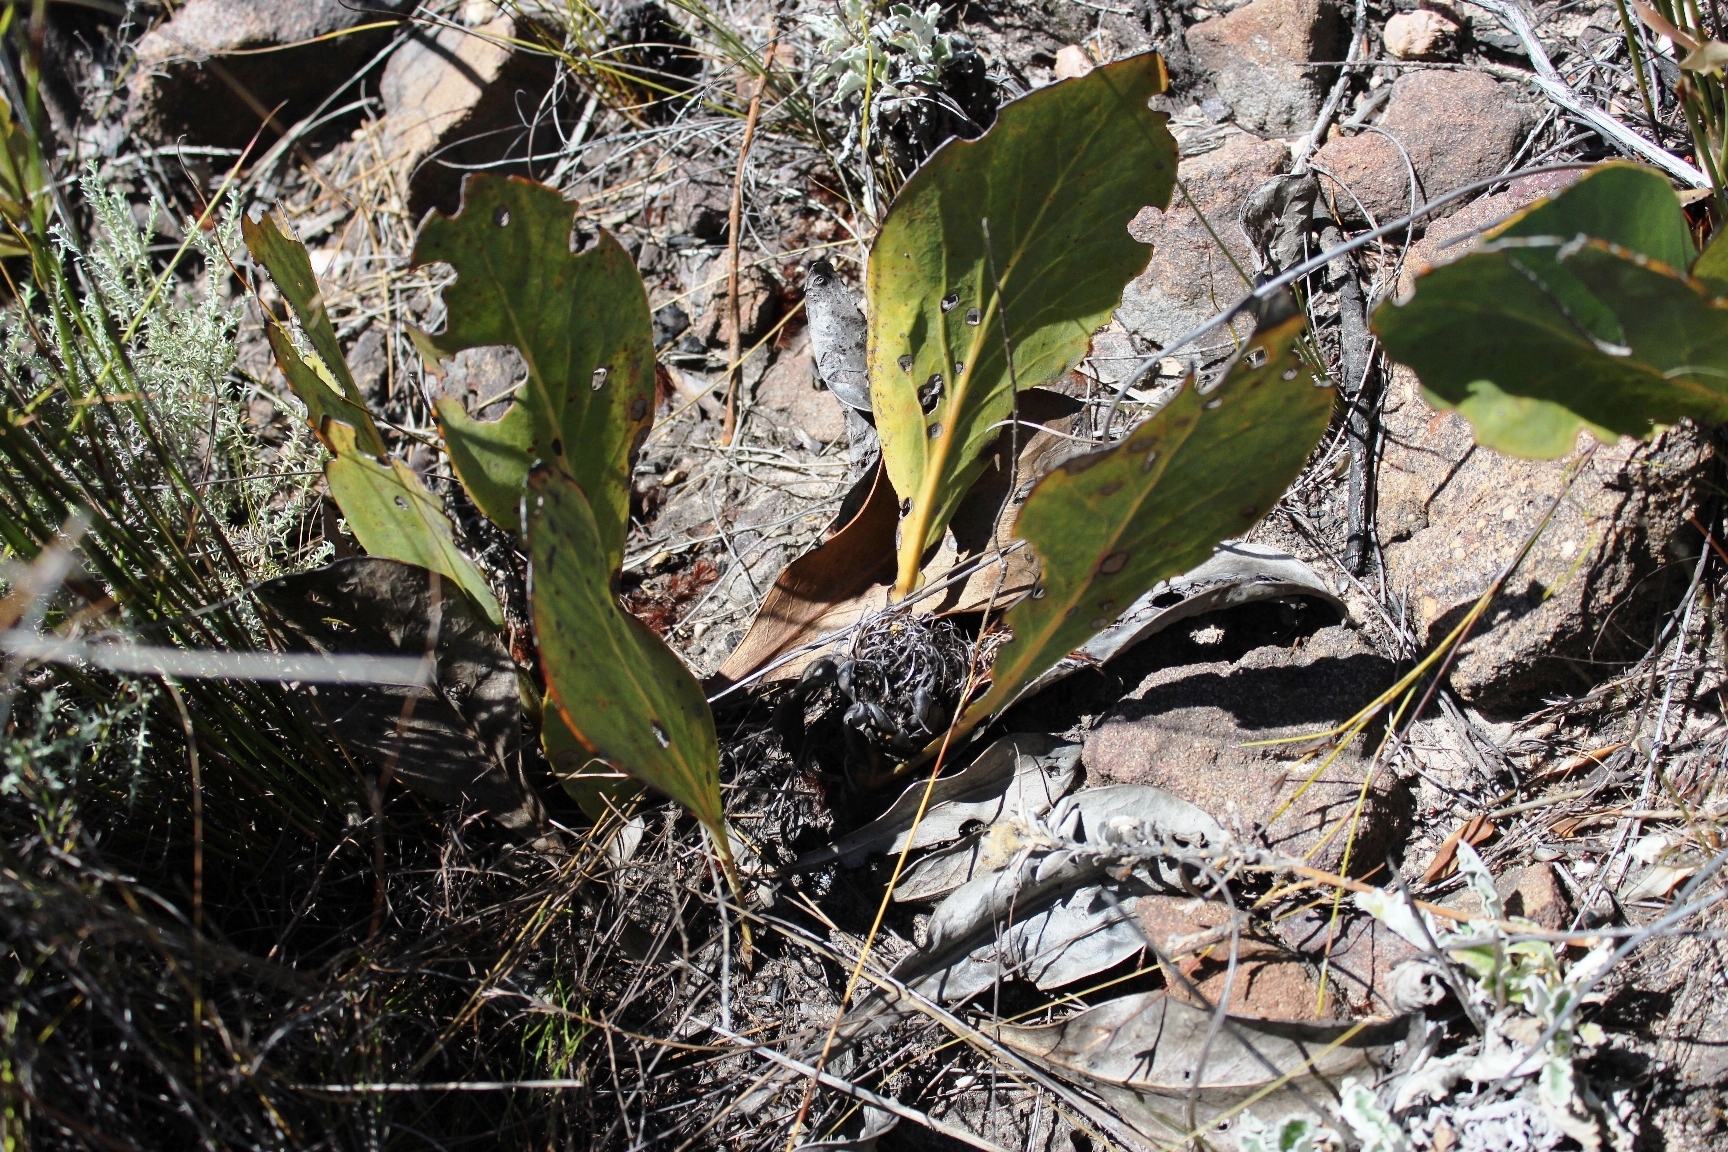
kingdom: Plantae
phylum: Tracheophyta
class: Magnoliopsida
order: Proteales
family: Proteaceae
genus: Protea
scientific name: Protea acaulos
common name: Common ground sugarbush
